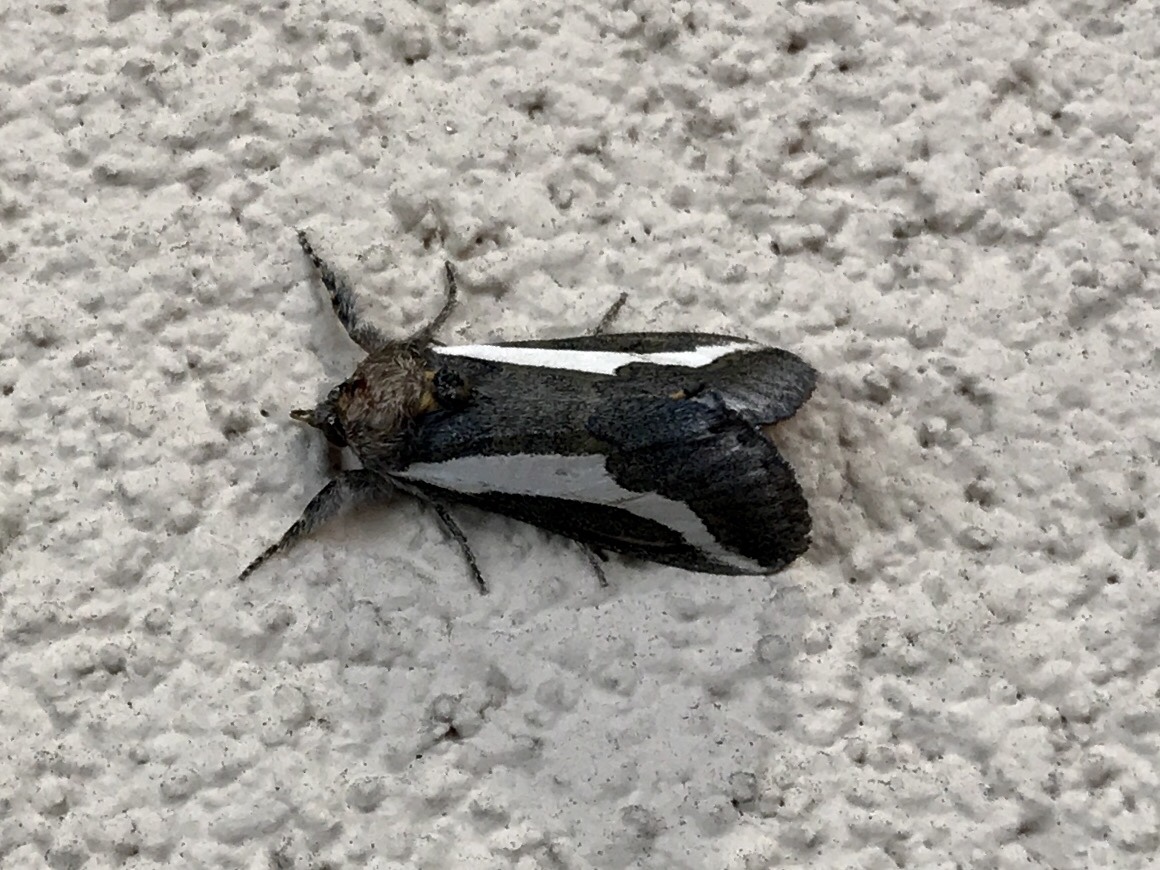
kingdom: Animalia
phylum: Arthropoda
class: Insecta
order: Lepidoptera
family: Noctuidae
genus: Euscirrhopterus
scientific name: Euscirrhopterus cosyra
